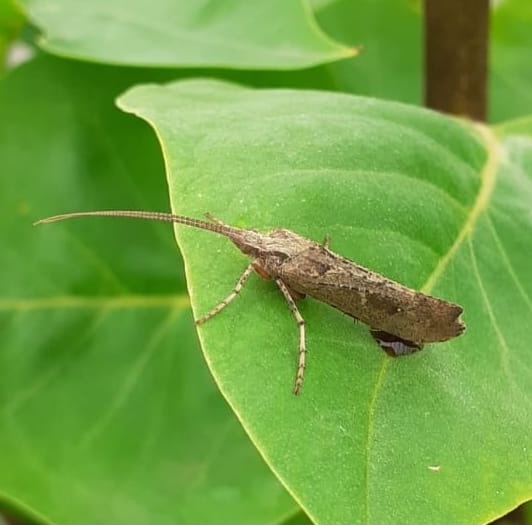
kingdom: Animalia
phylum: Arthropoda
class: Insecta
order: Trichoptera
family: Limnephilidae
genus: Glyphotaelius
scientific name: Glyphotaelius pellucidus
